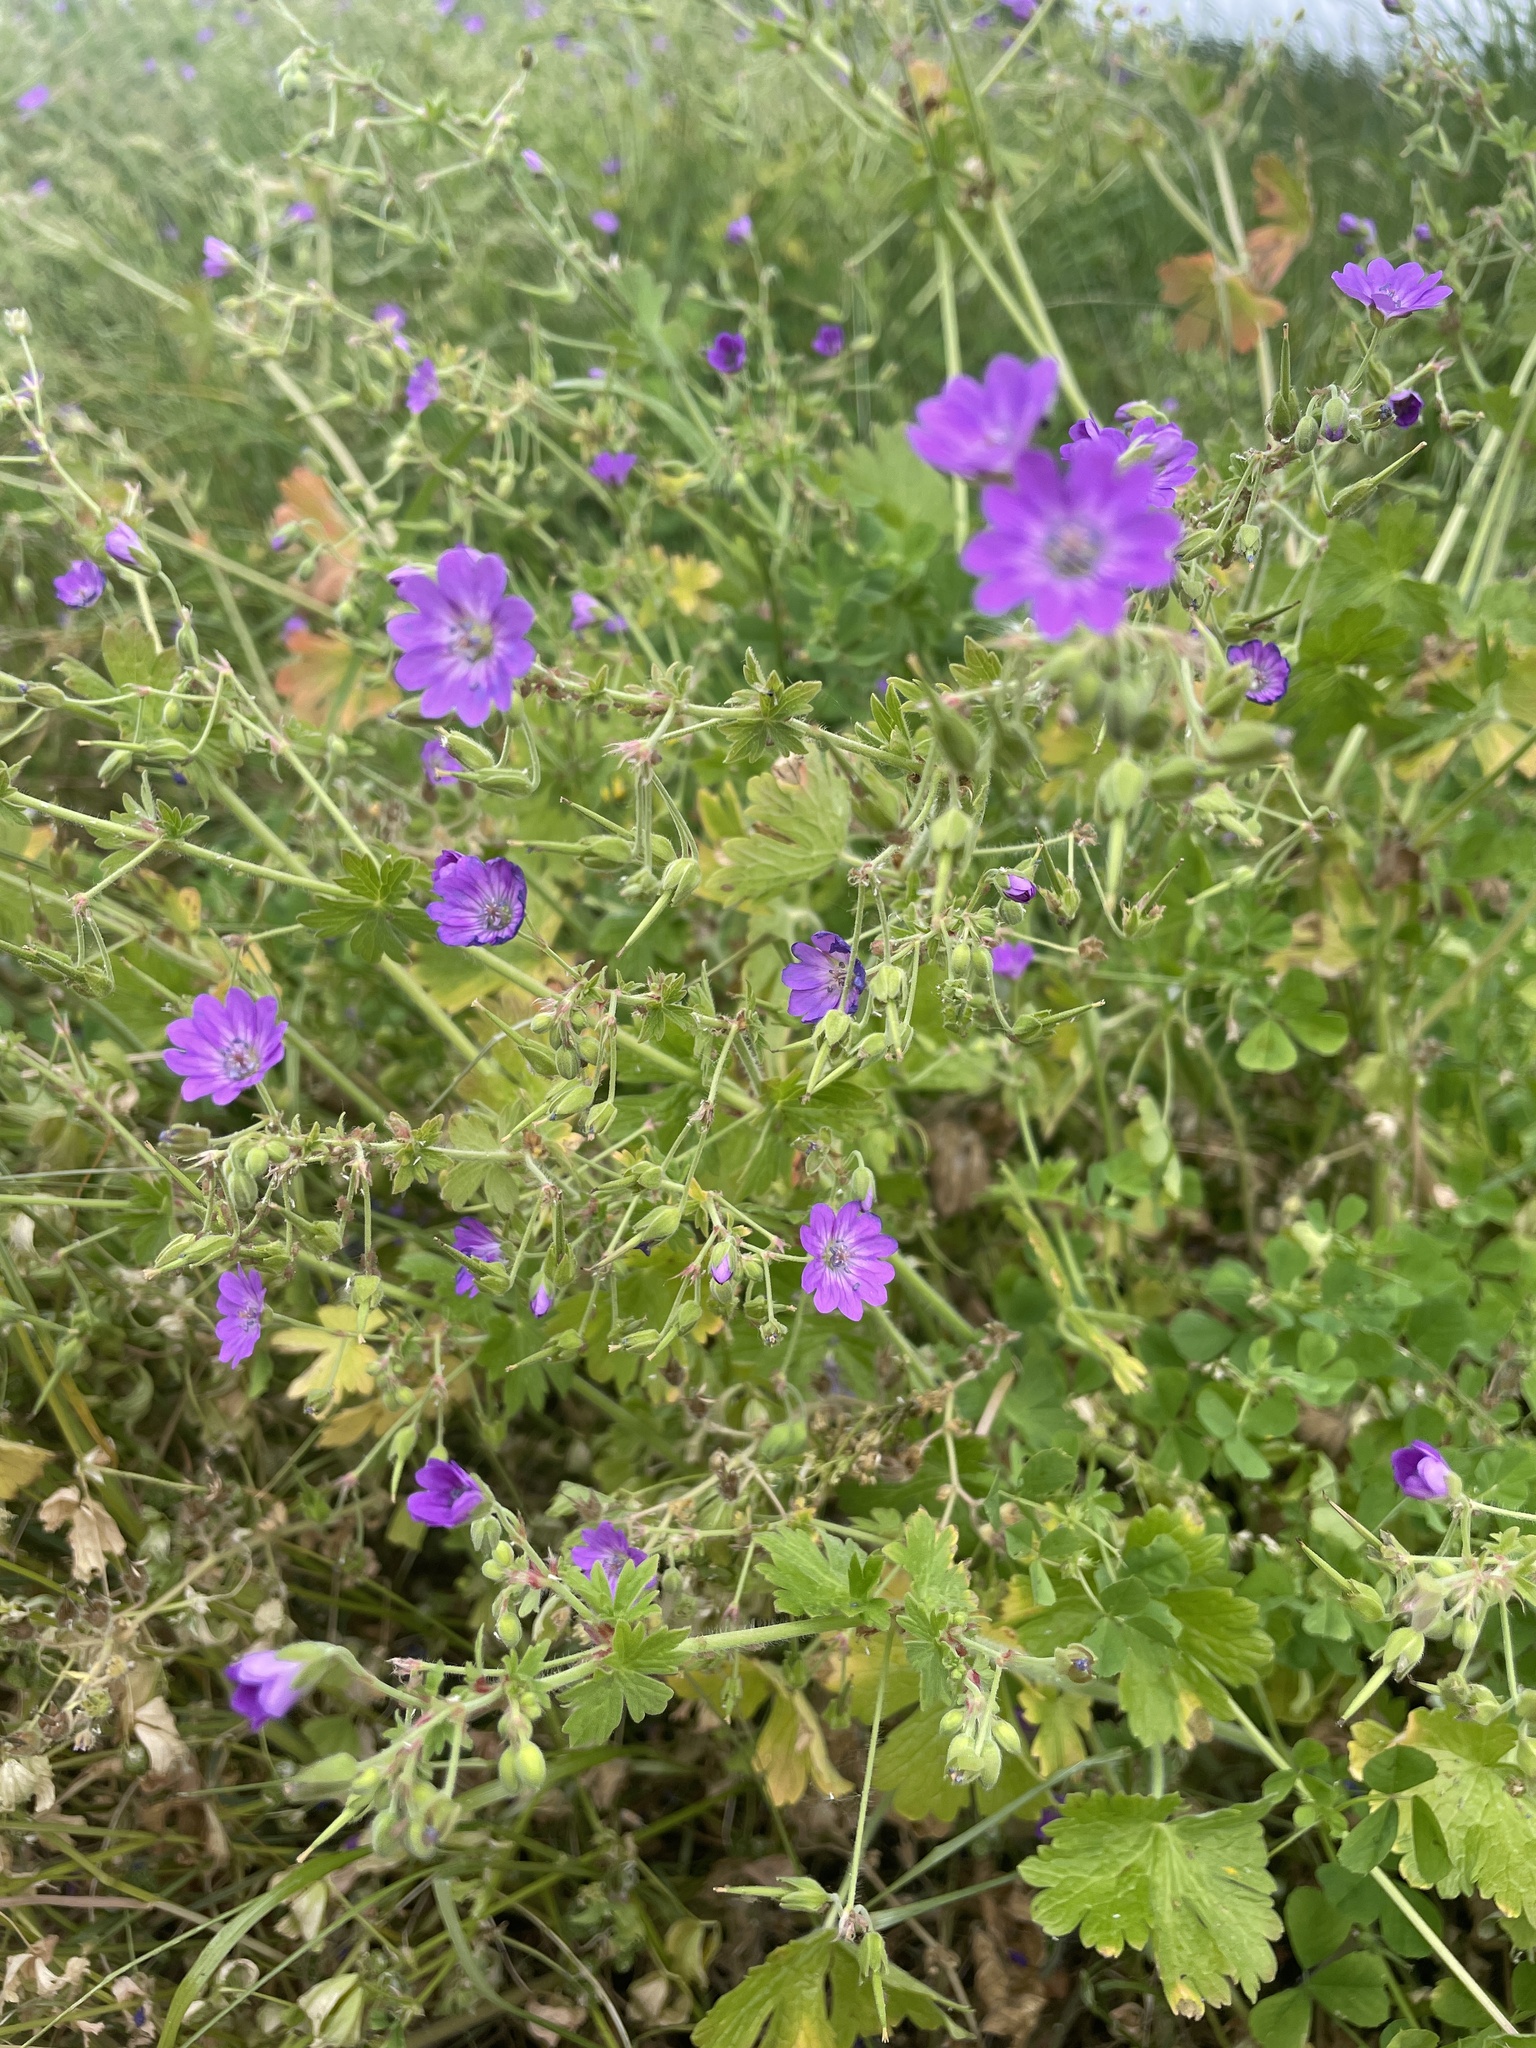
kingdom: Plantae
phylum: Tracheophyta
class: Magnoliopsida
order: Geraniales
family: Geraniaceae
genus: Geranium
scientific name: Geranium pyrenaicum
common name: Hedgerow crane's-bill
